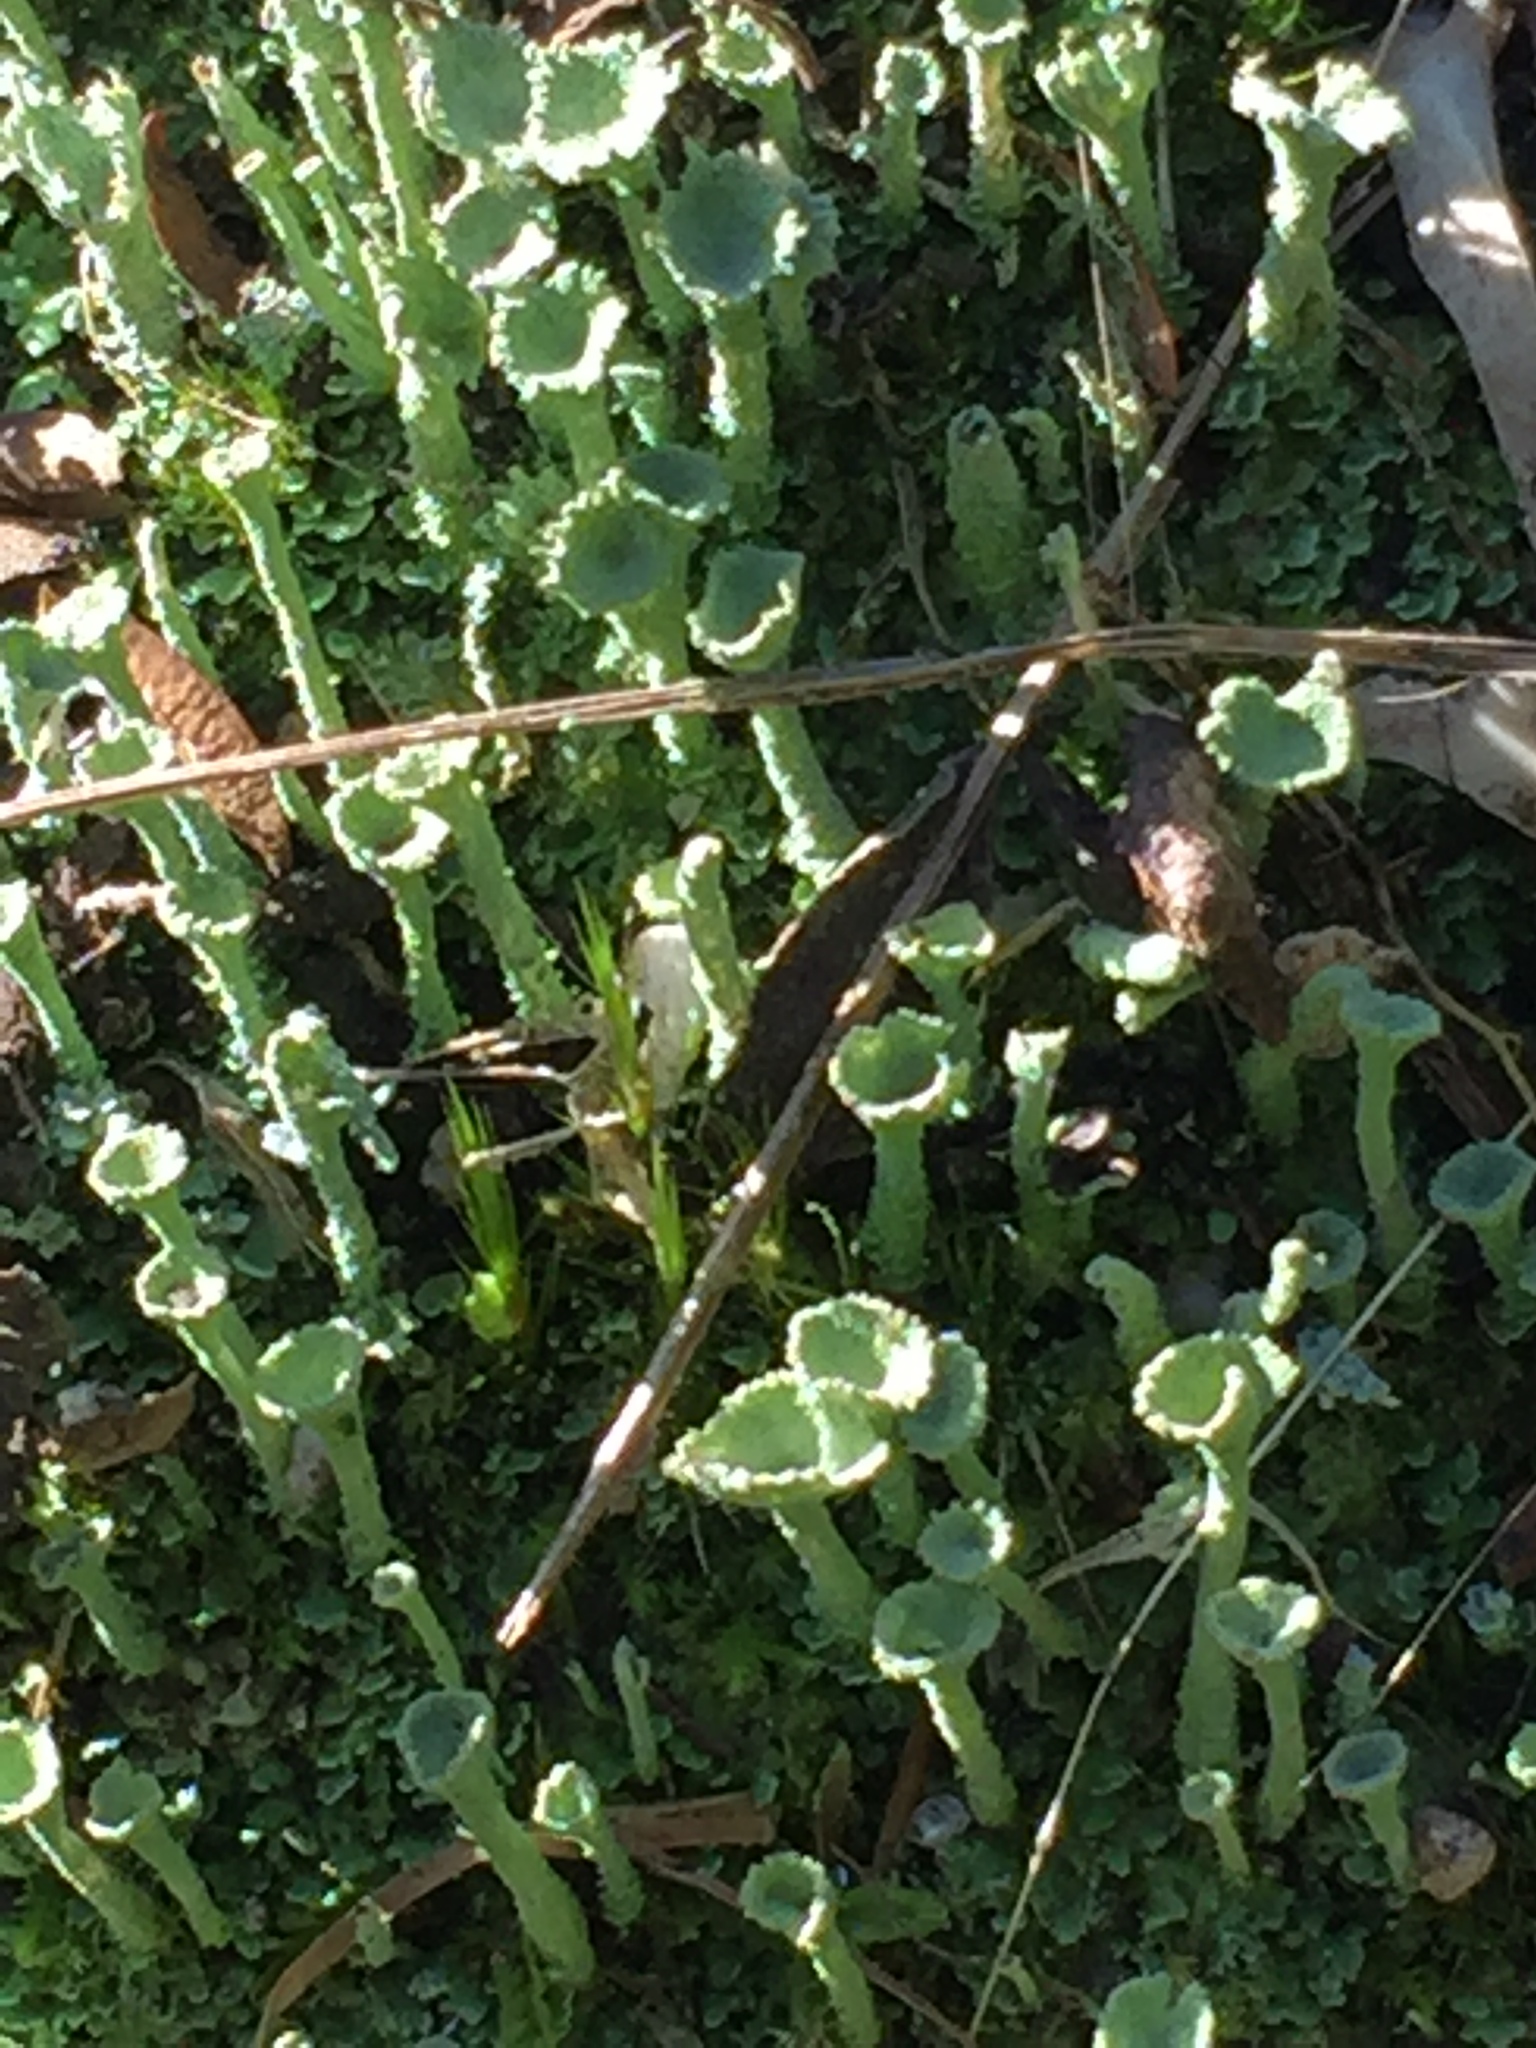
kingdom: Fungi
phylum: Ascomycota
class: Lecanoromycetes
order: Lecanorales
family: Cladoniaceae
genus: Cladonia
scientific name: Cladonia fimbriata
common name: Powdered trumpet lichen
